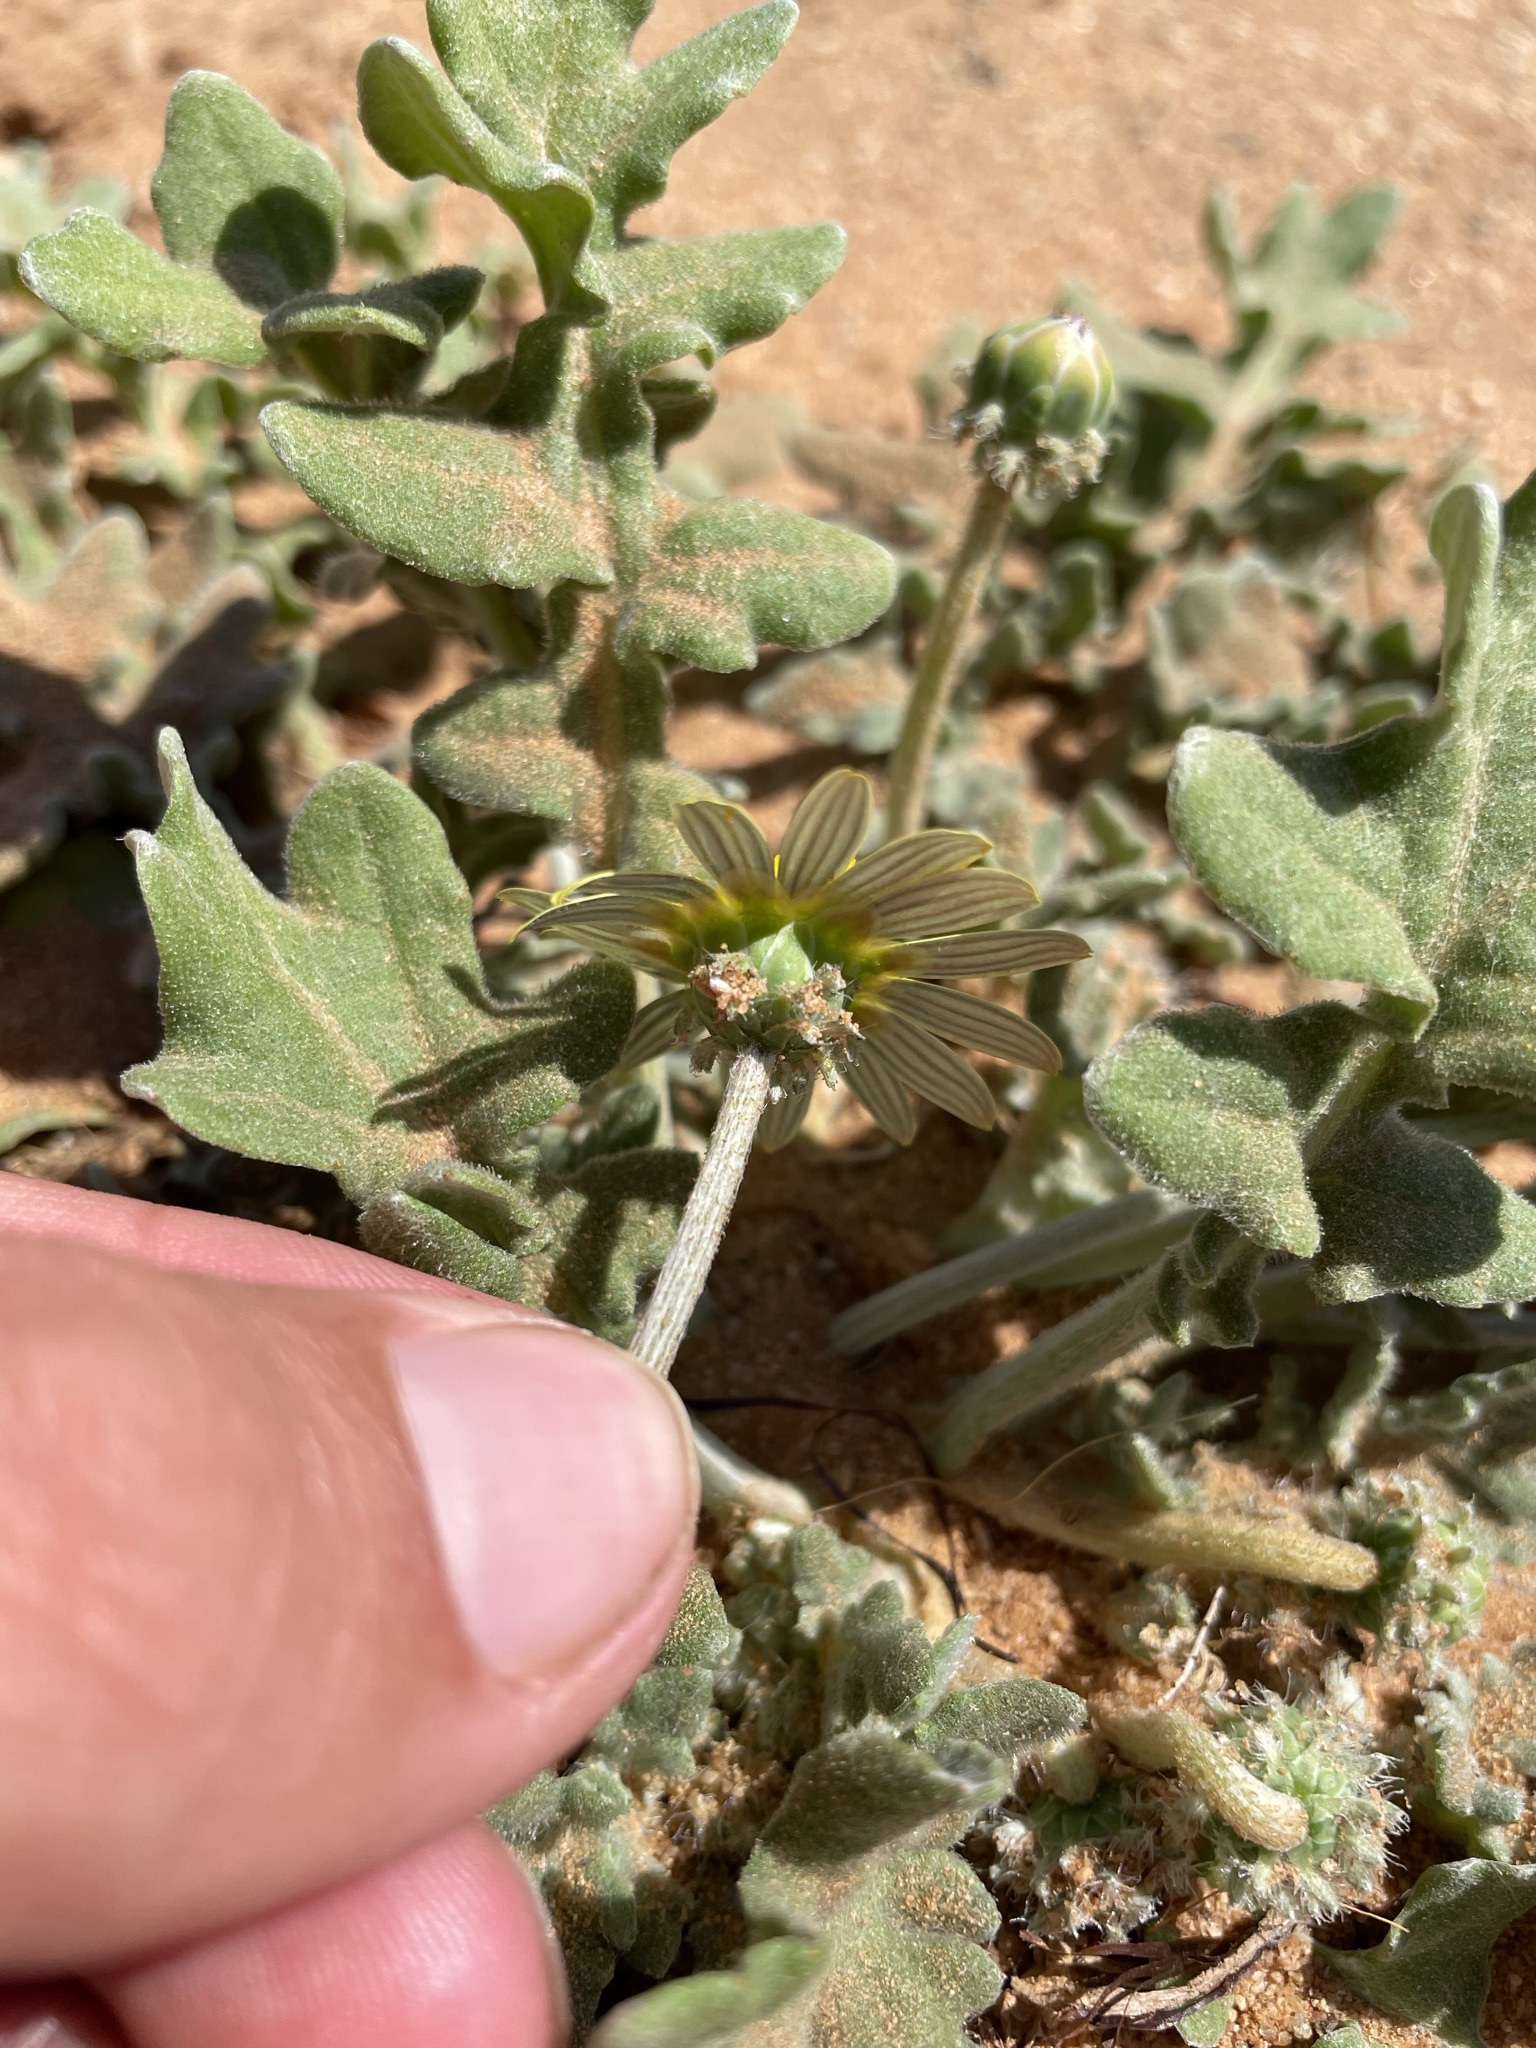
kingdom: Plantae
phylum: Tracheophyta
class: Magnoliopsida
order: Asterales
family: Asteraceae
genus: Arctotheca
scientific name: Arctotheca calendula
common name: Capeweed
